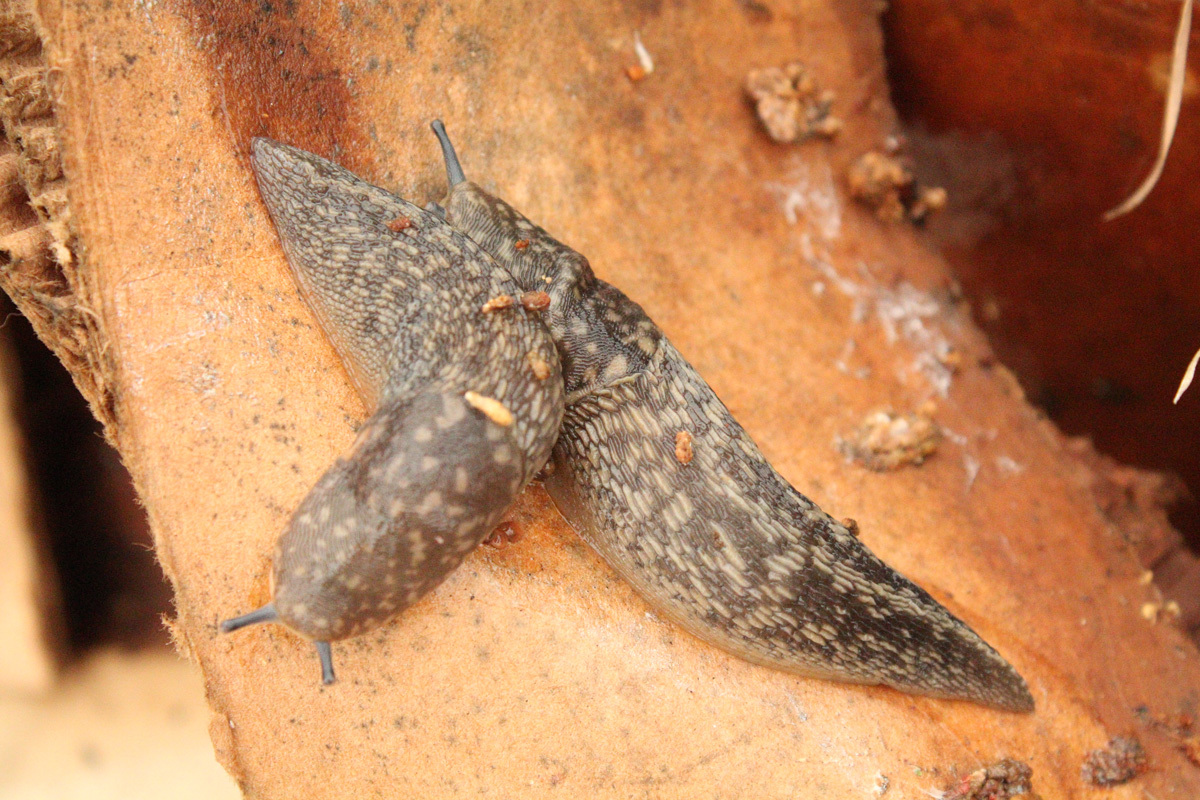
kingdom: Animalia
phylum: Mollusca
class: Gastropoda
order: Stylommatophora
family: Limacidae
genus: Limacus
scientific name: Limacus flavus
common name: Yellow gardenslug
